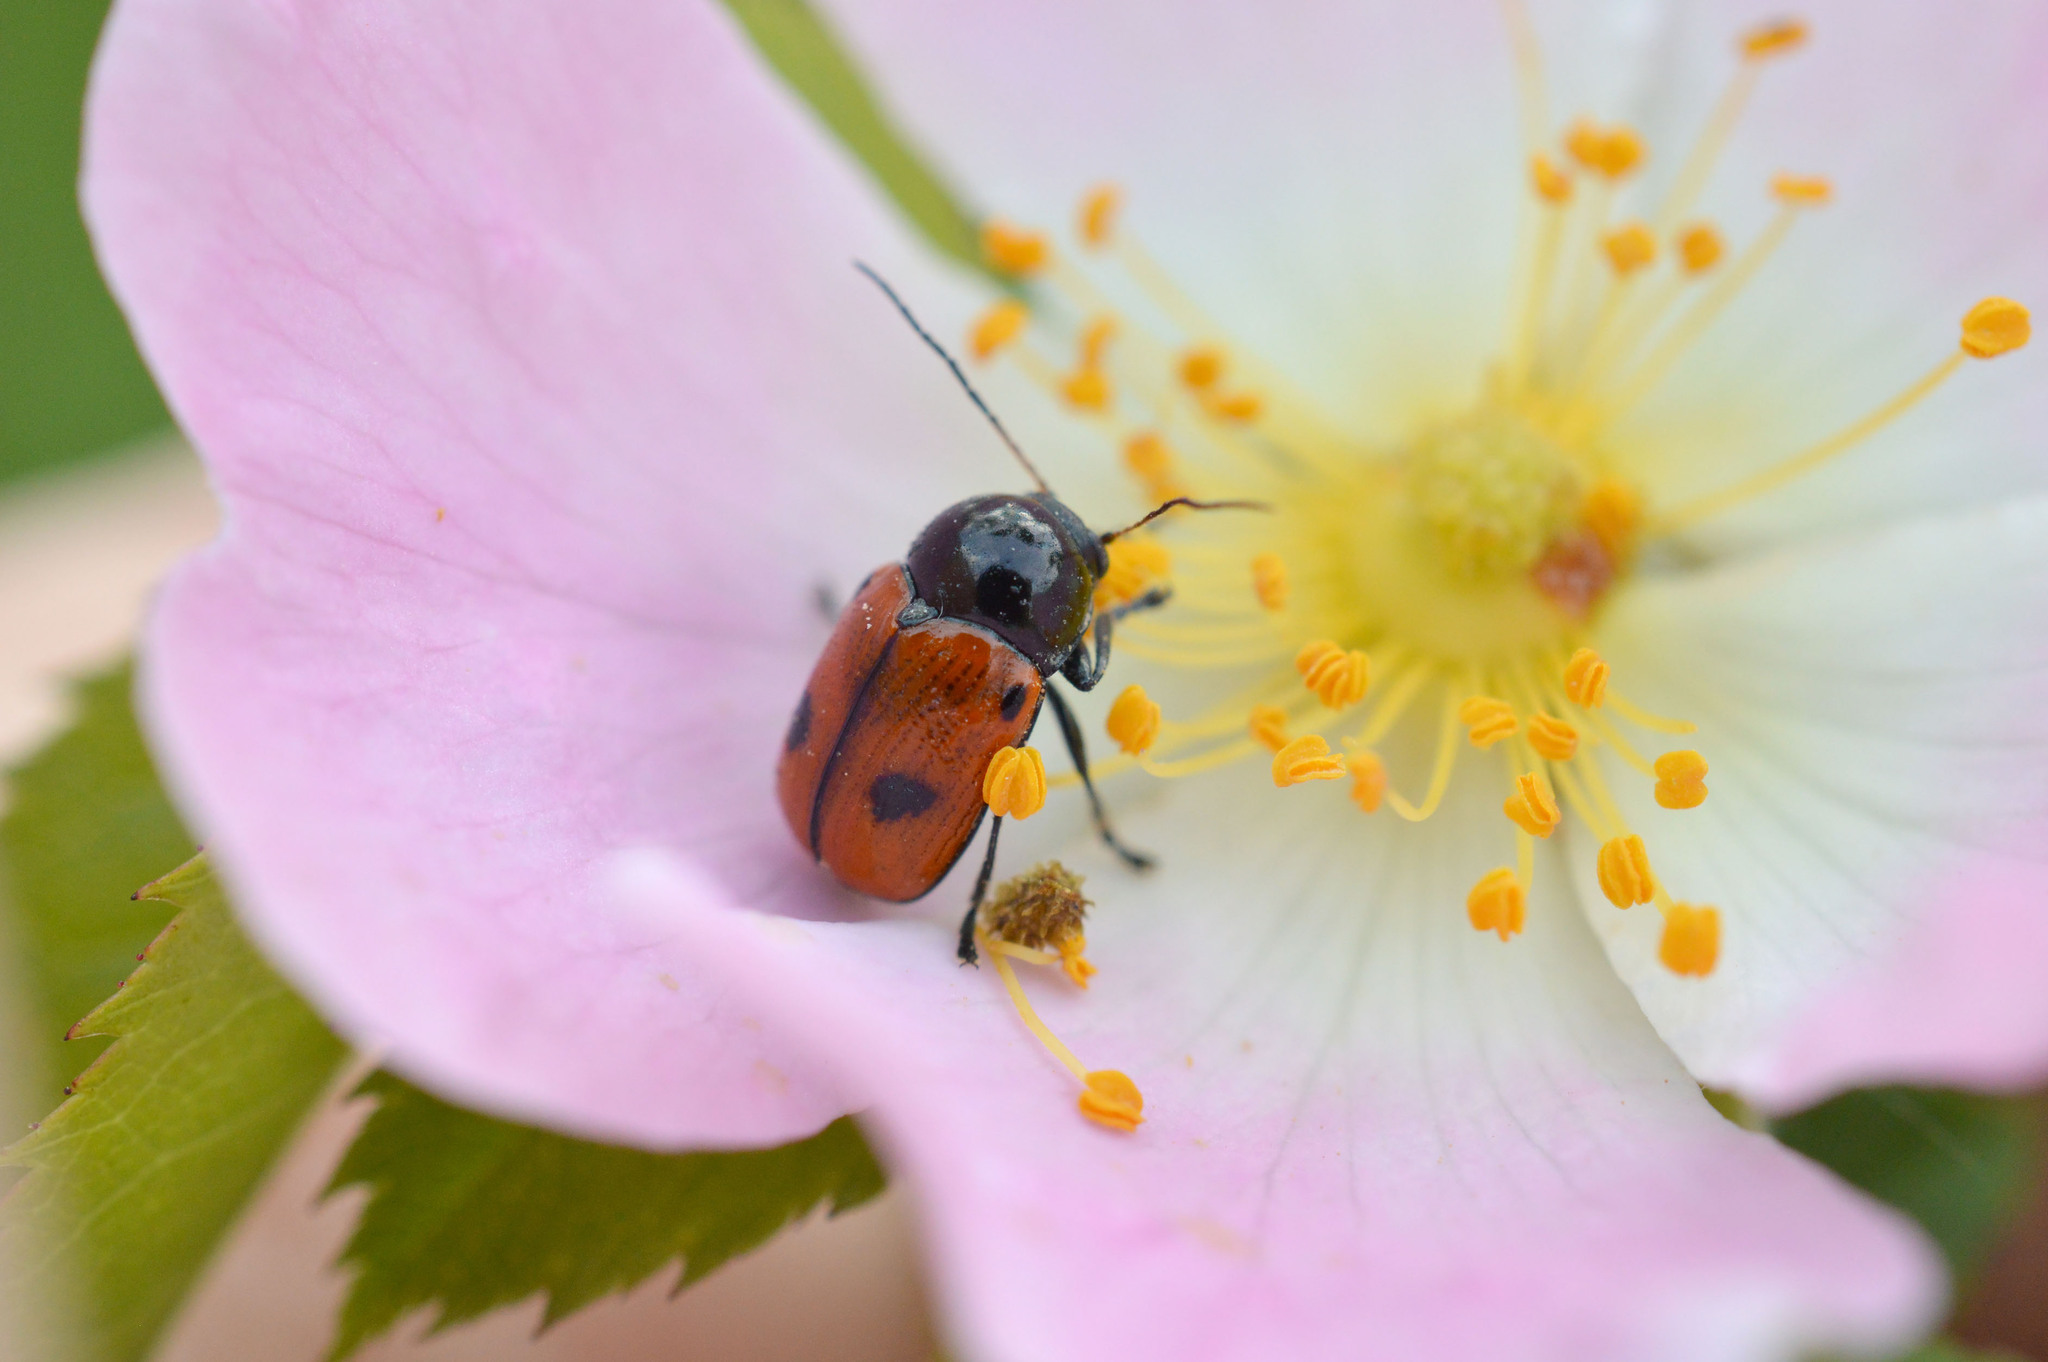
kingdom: Animalia
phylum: Arthropoda
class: Insecta
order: Coleoptera
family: Chrysomelidae
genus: Chiridopsis
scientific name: Chiridopsis bipunctata
